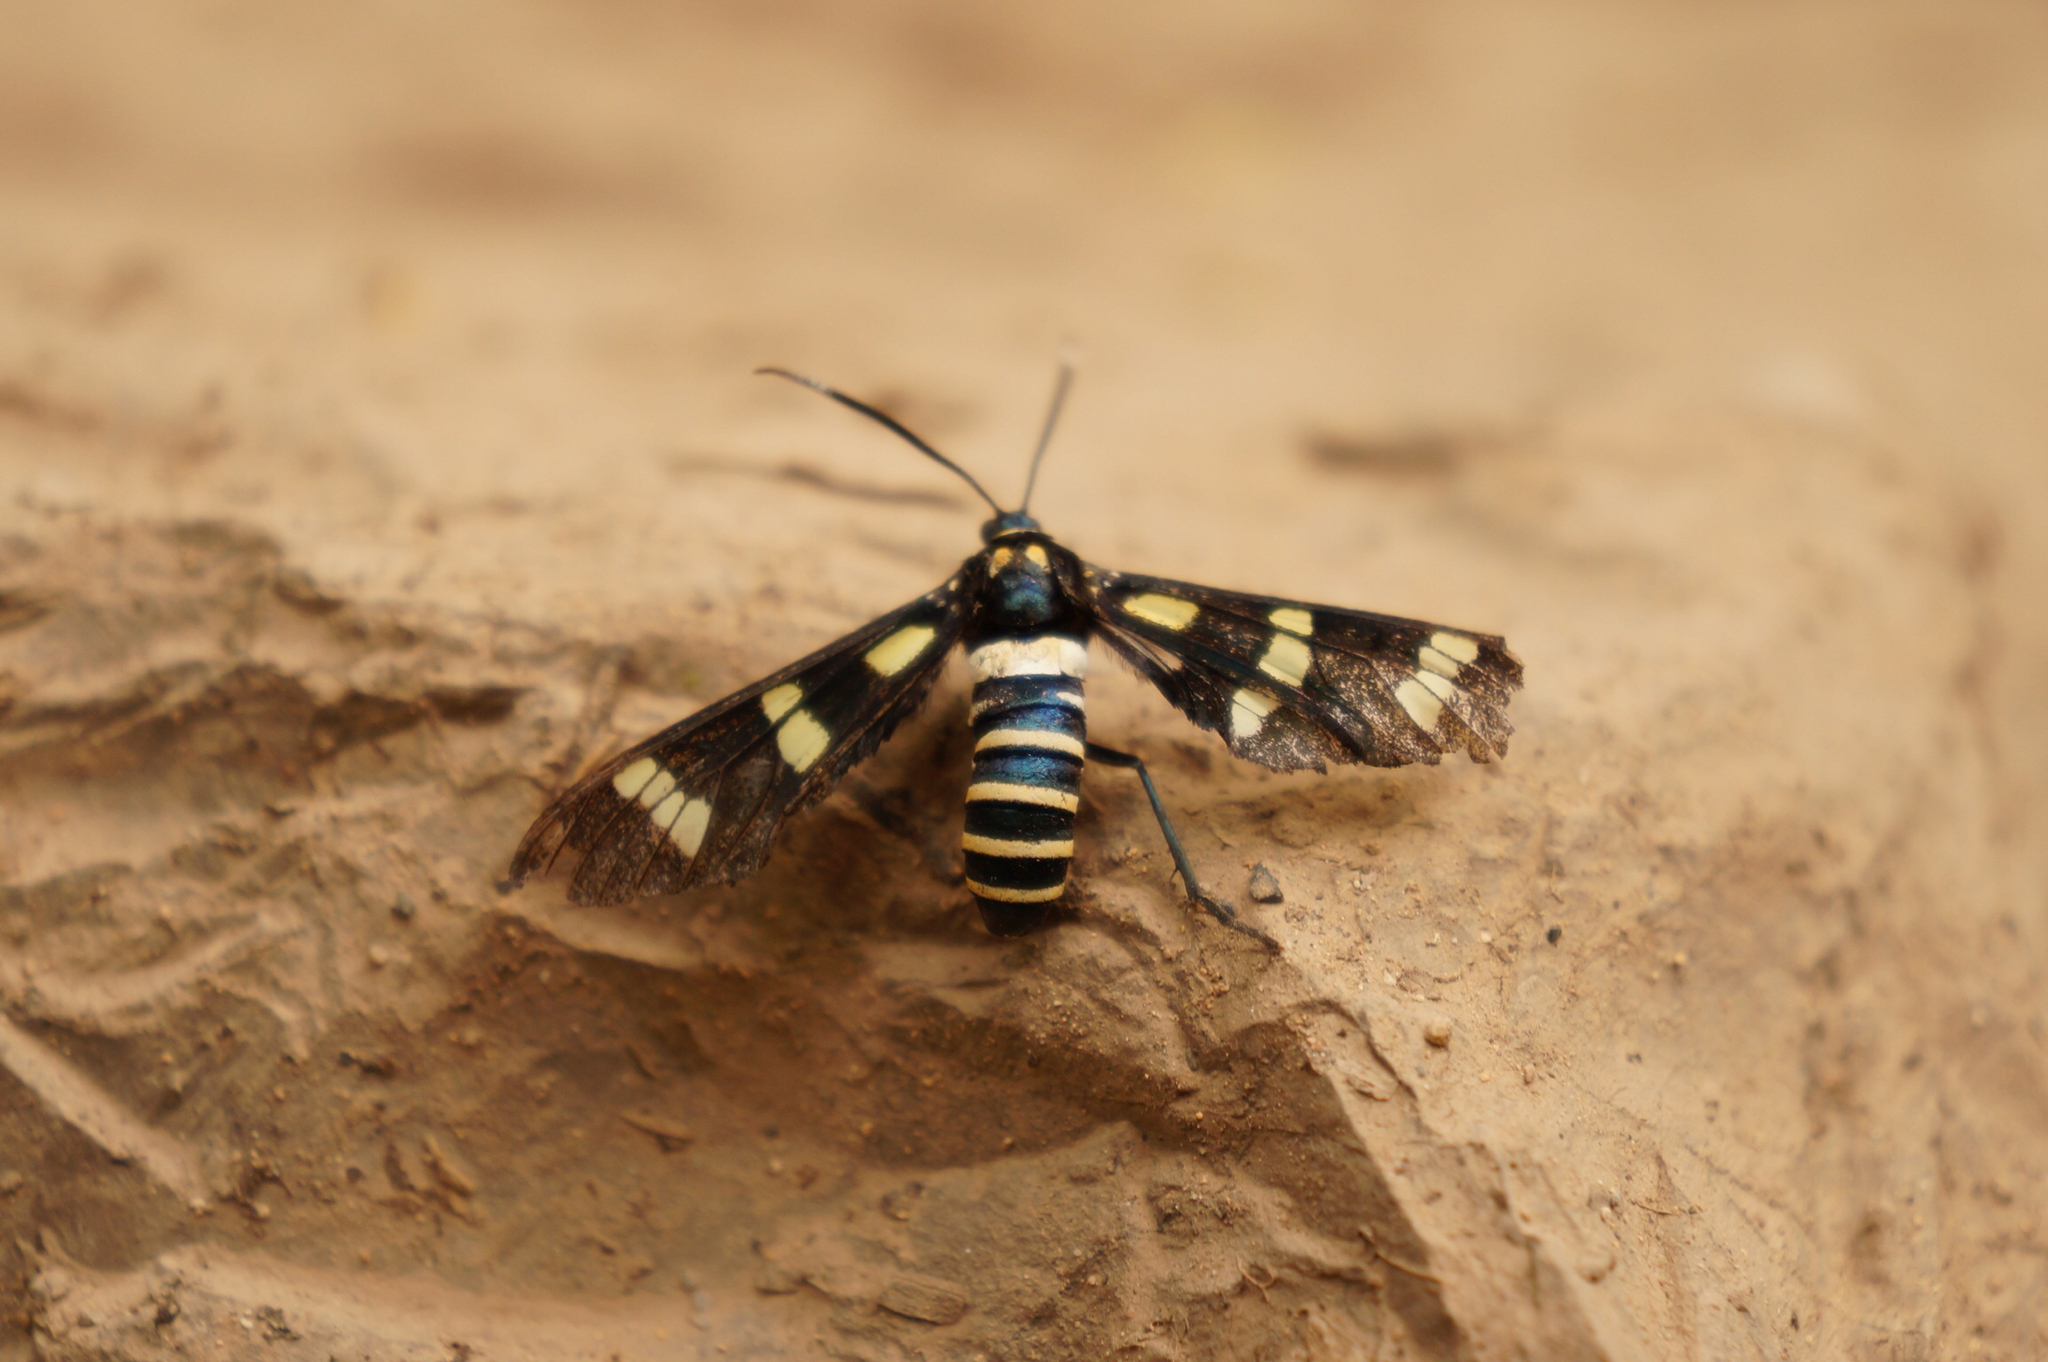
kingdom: Animalia
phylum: Arthropoda
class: Insecta
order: Lepidoptera
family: Erebidae
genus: Syntomeida
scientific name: Syntomeida melanthus
